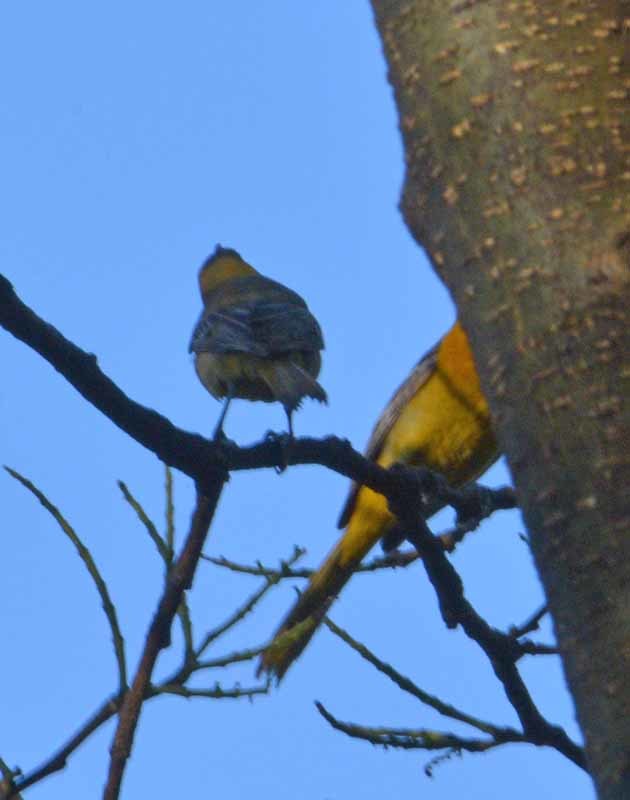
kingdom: Animalia
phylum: Chordata
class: Aves
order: Passeriformes
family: Icteridae
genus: Icterus
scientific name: Icterus cucullatus
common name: Hooded oriole
